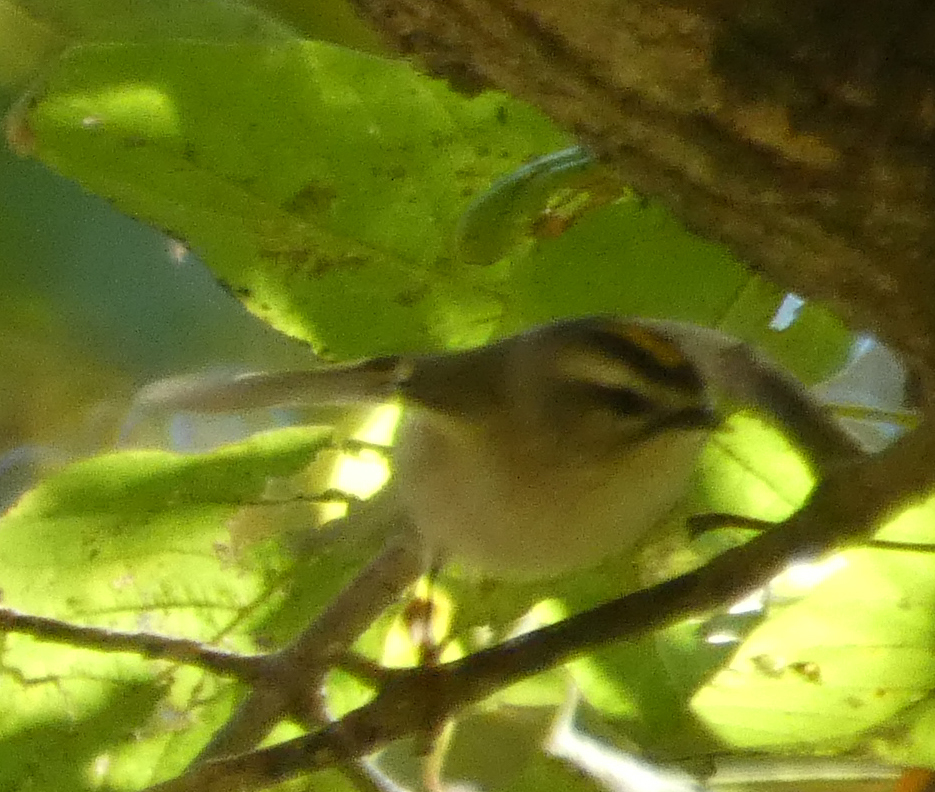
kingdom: Animalia
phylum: Chordata
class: Aves
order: Passeriformes
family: Regulidae
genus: Regulus
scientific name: Regulus satrapa
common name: Golden-crowned kinglet
